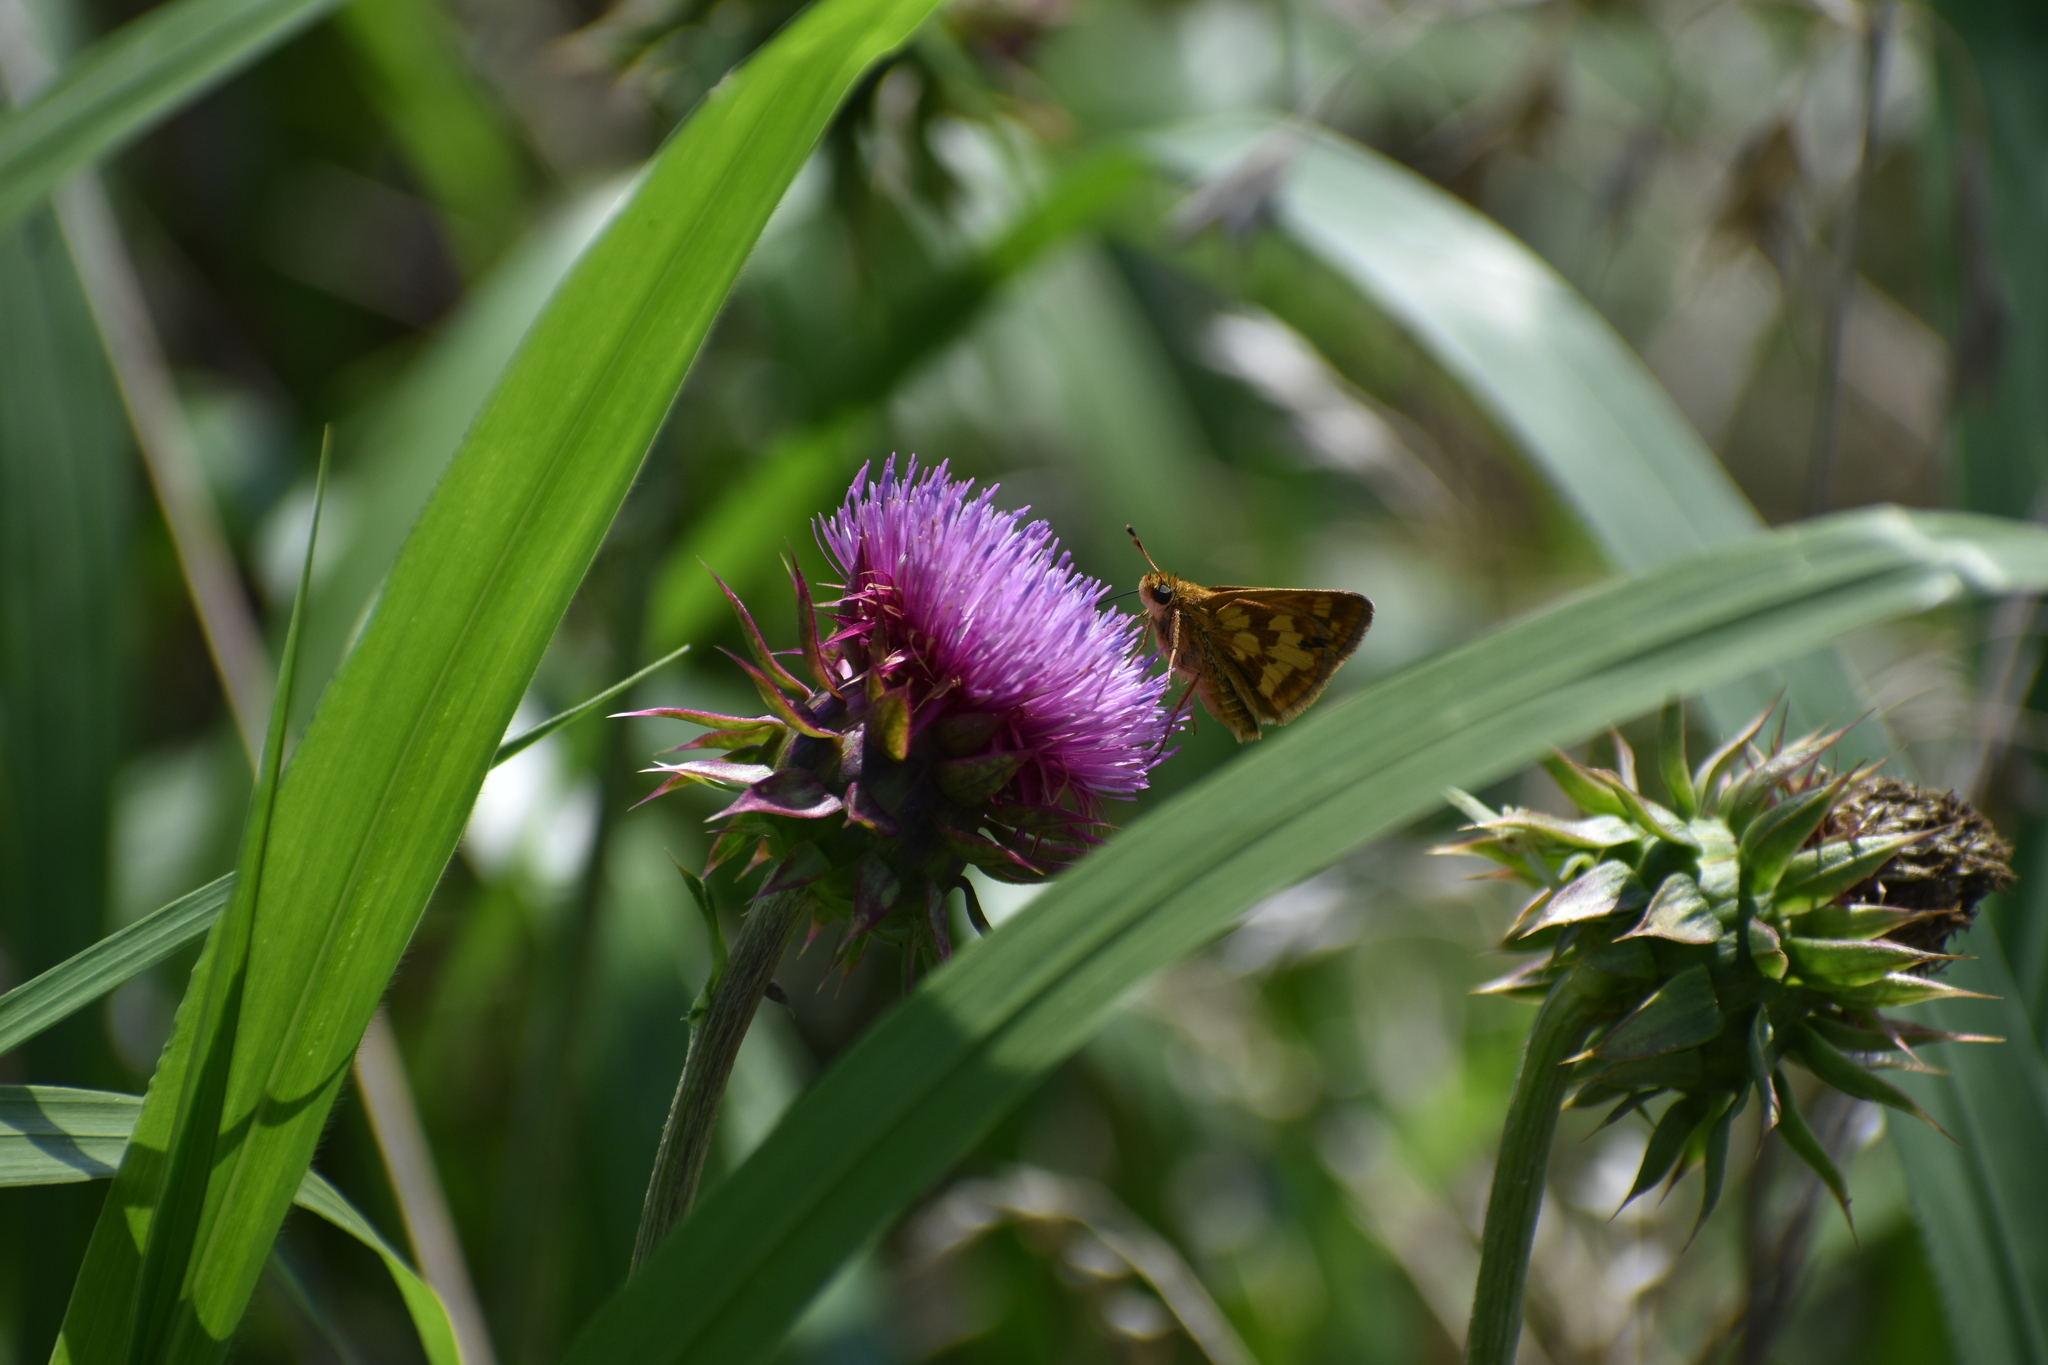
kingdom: Animalia
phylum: Arthropoda
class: Insecta
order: Lepidoptera
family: Hesperiidae
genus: Polites
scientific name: Polites coras
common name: Peck's skipper
